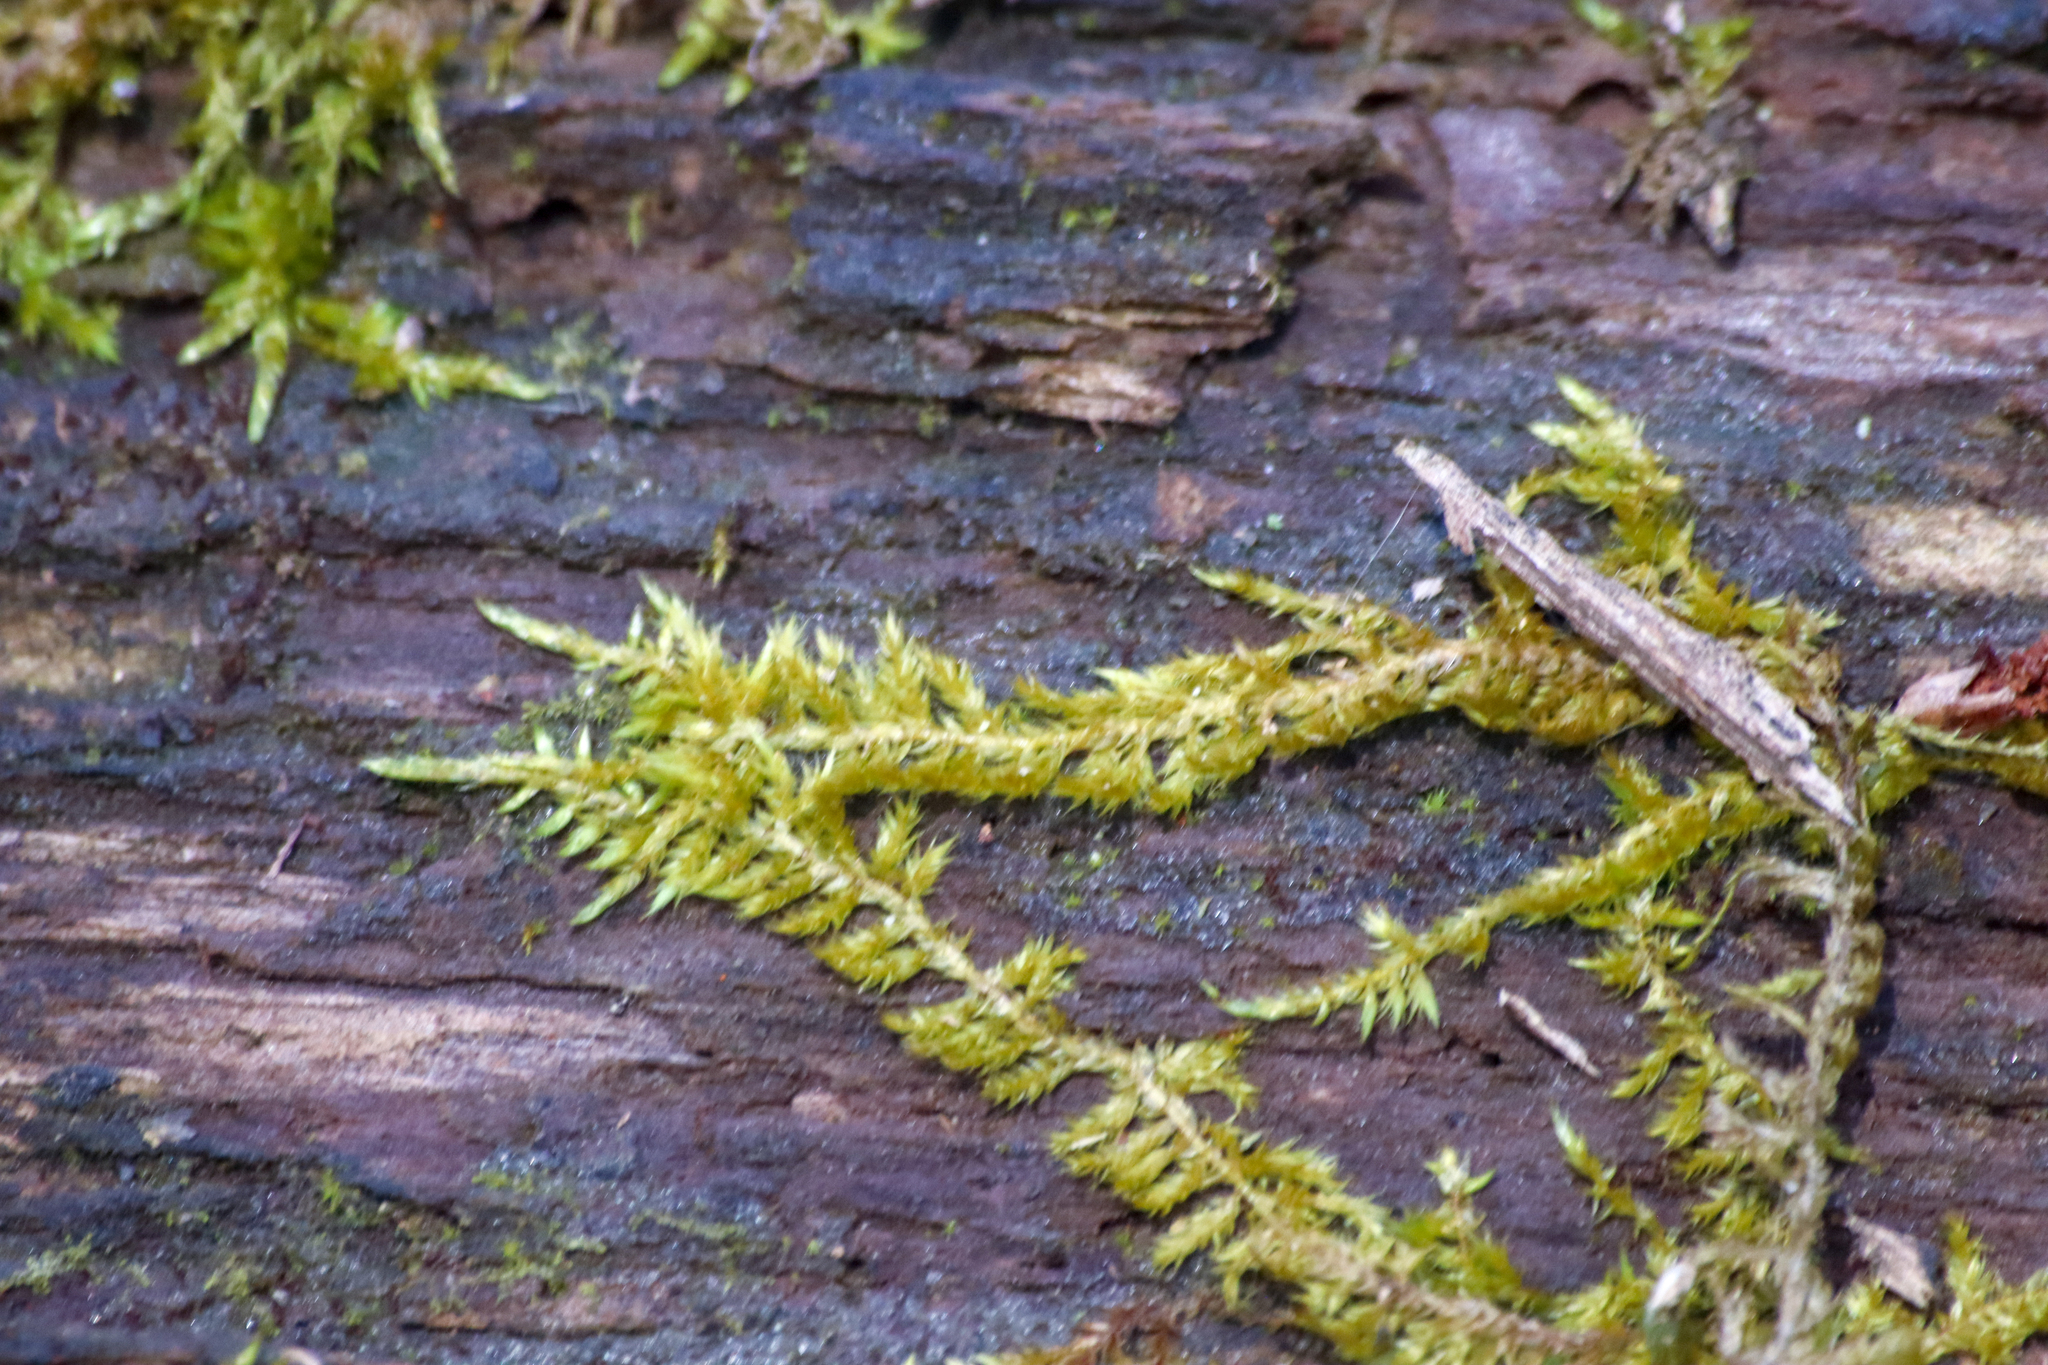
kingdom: Plantae
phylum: Bryophyta
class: Bryopsida
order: Hypnales
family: Callicladiaceae
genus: Callicladium
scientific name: Callicladium haldanianum
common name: Beautiful branch moss
